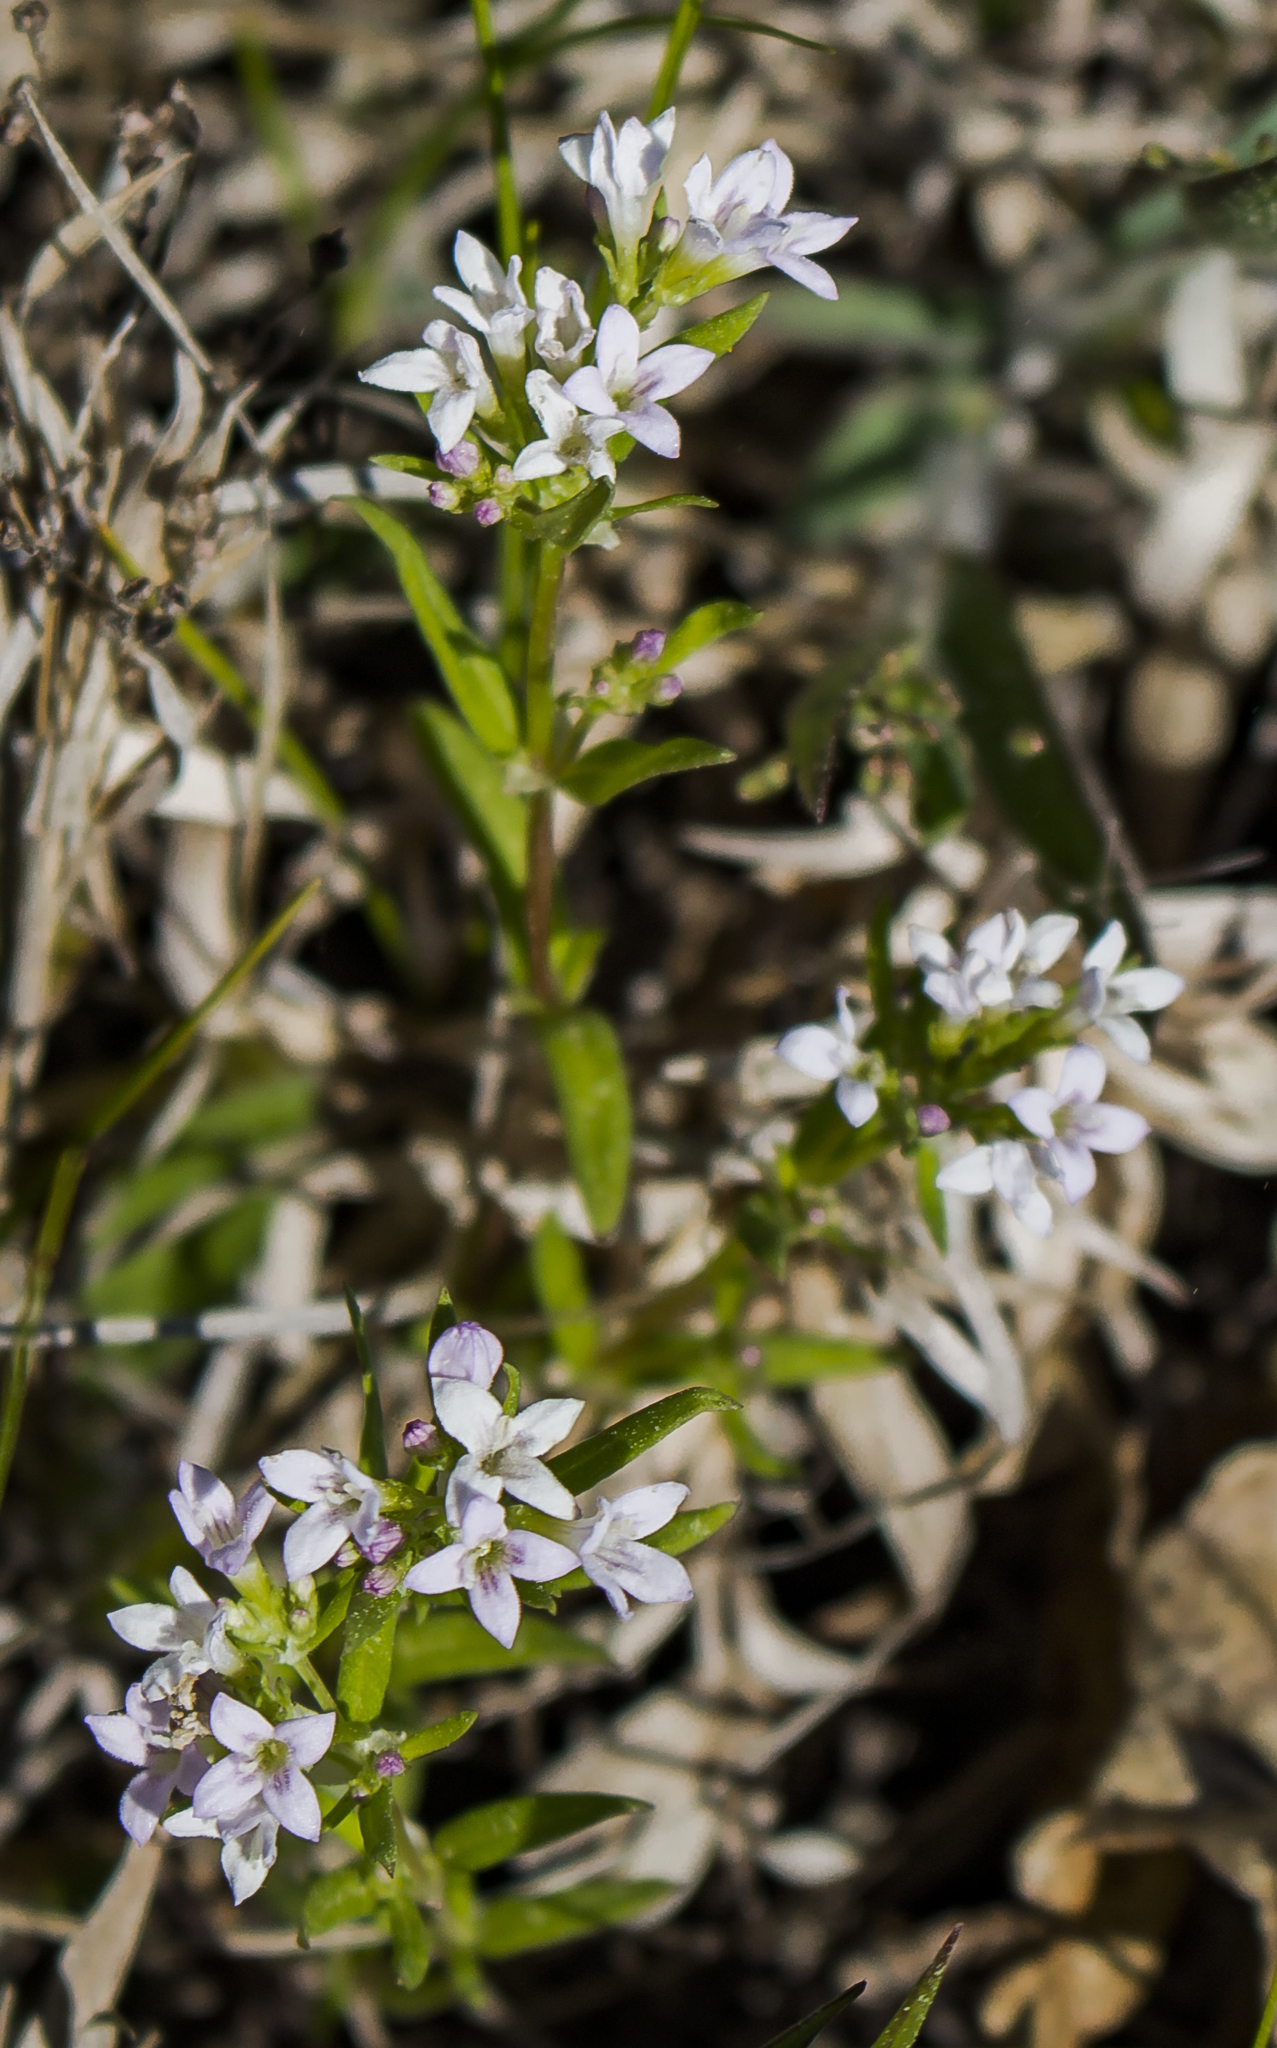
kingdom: Plantae
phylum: Tracheophyta
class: Magnoliopsida
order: Gentianales
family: Rubiaceae
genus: Houstonia
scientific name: Houstonia longifolia
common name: Long-leaved bluets
